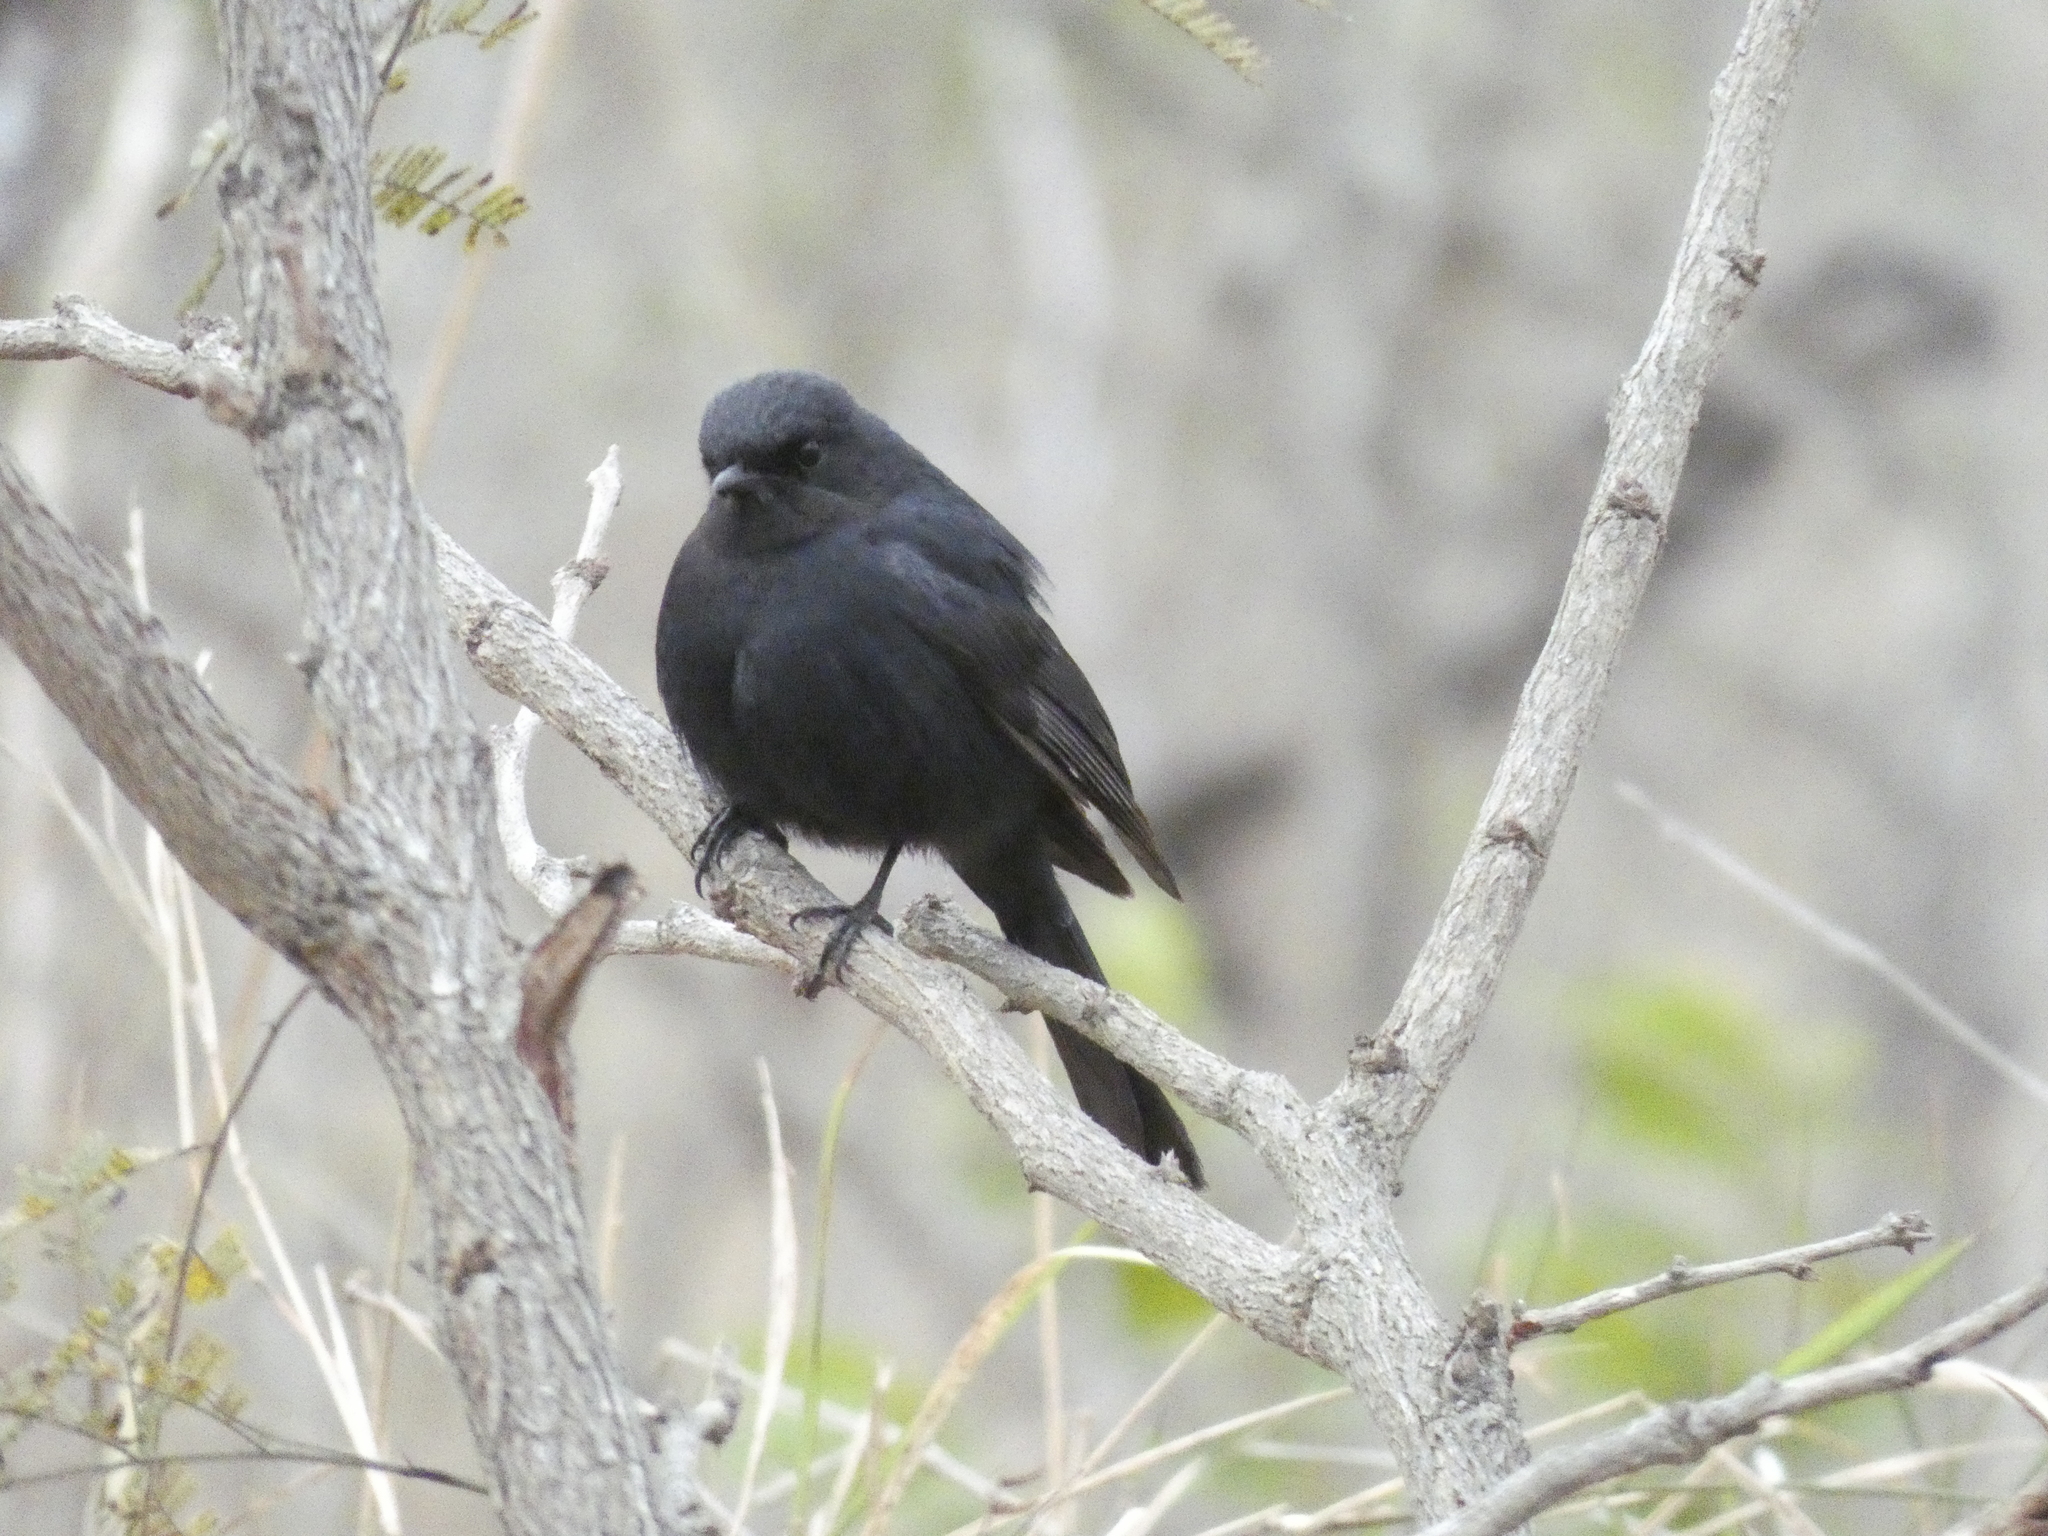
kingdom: Animalia
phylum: Chordata
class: Aves
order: Passeriformes
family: Muscicapidae
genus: Melaenornis
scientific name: Melaenornis pammelaina
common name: Southern black flycatcher
